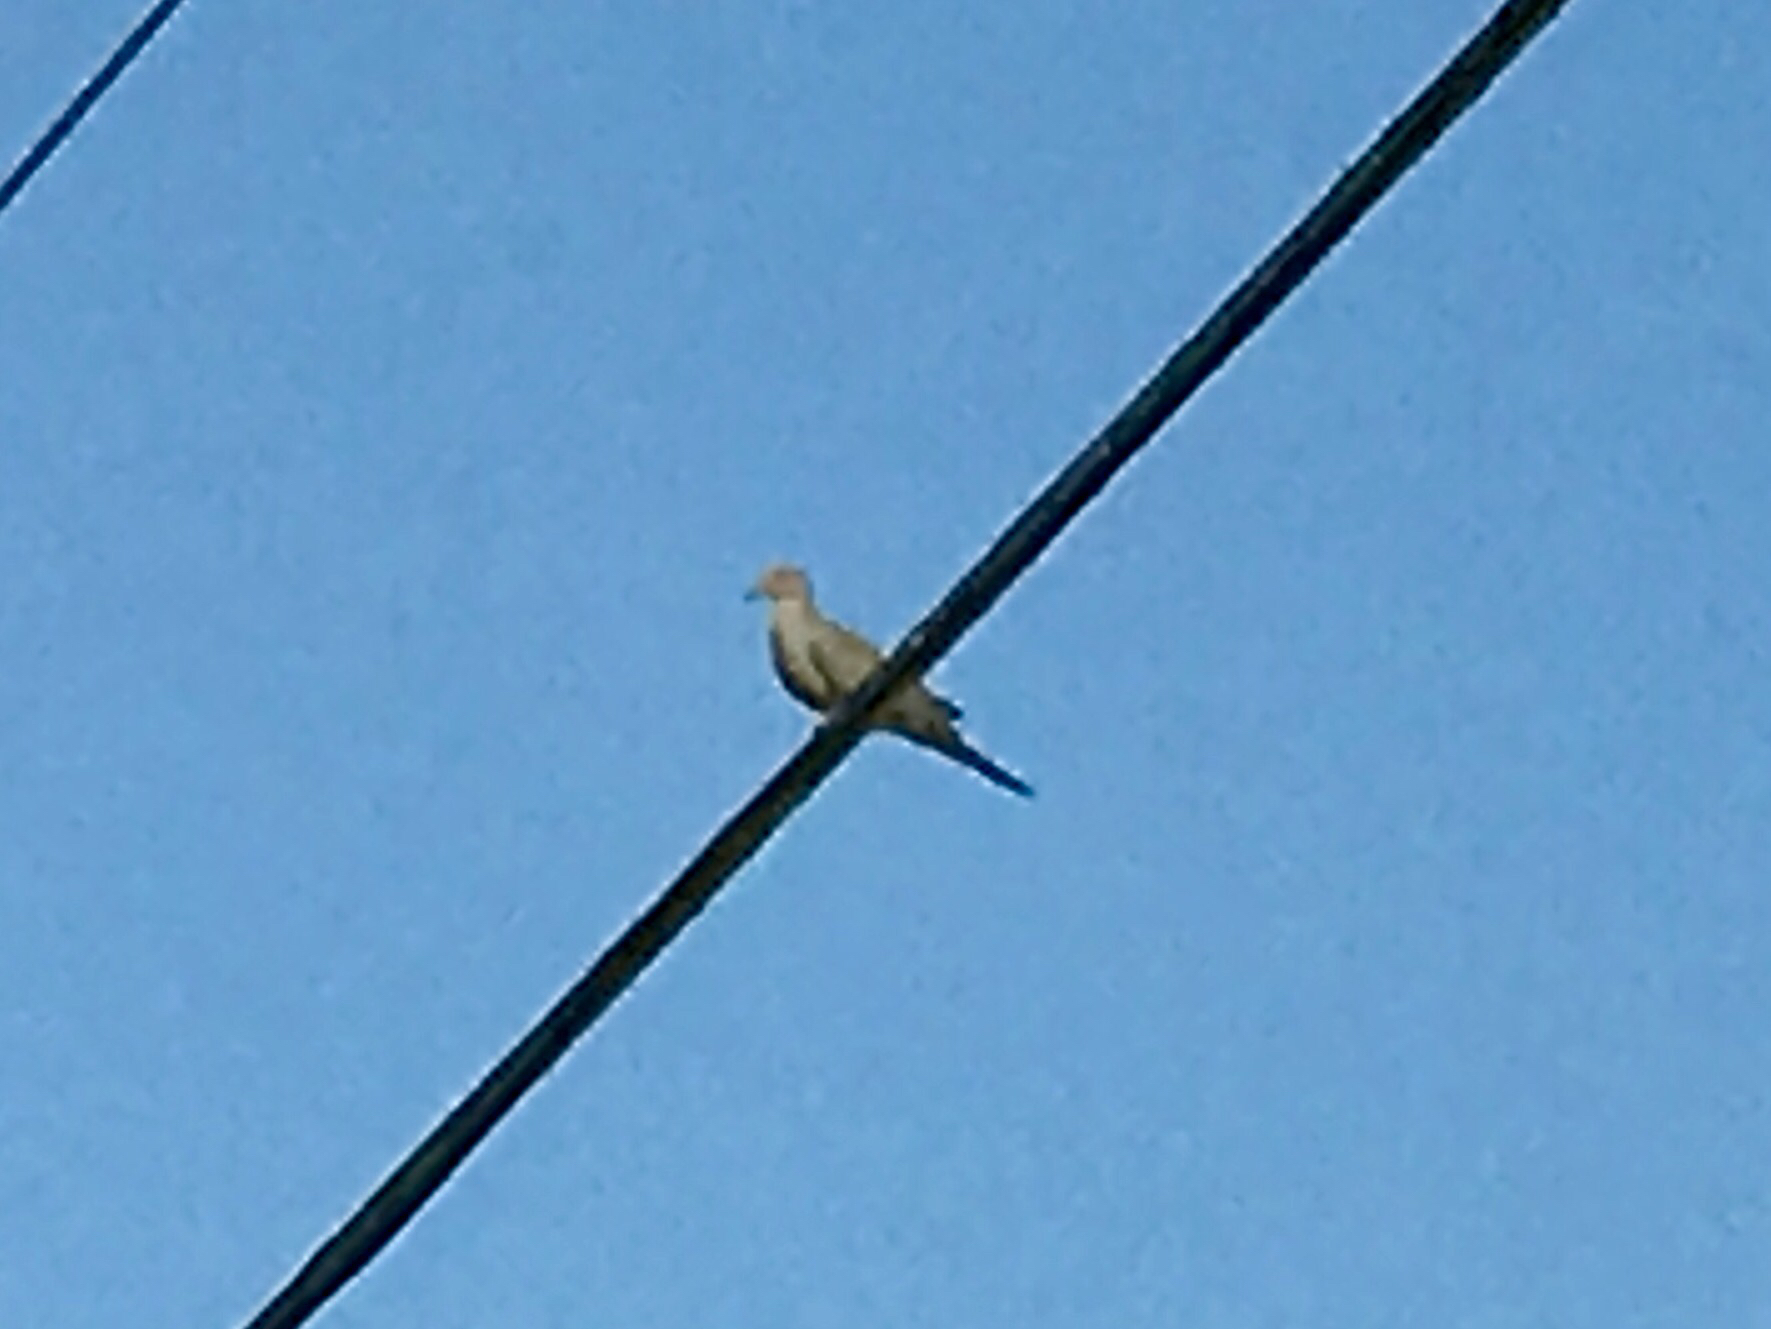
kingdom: Animalia
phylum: Chordata
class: Aves
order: Columbiformes
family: Columbidae
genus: Zenaida
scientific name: Zenaida macroura
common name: Mourning dove
